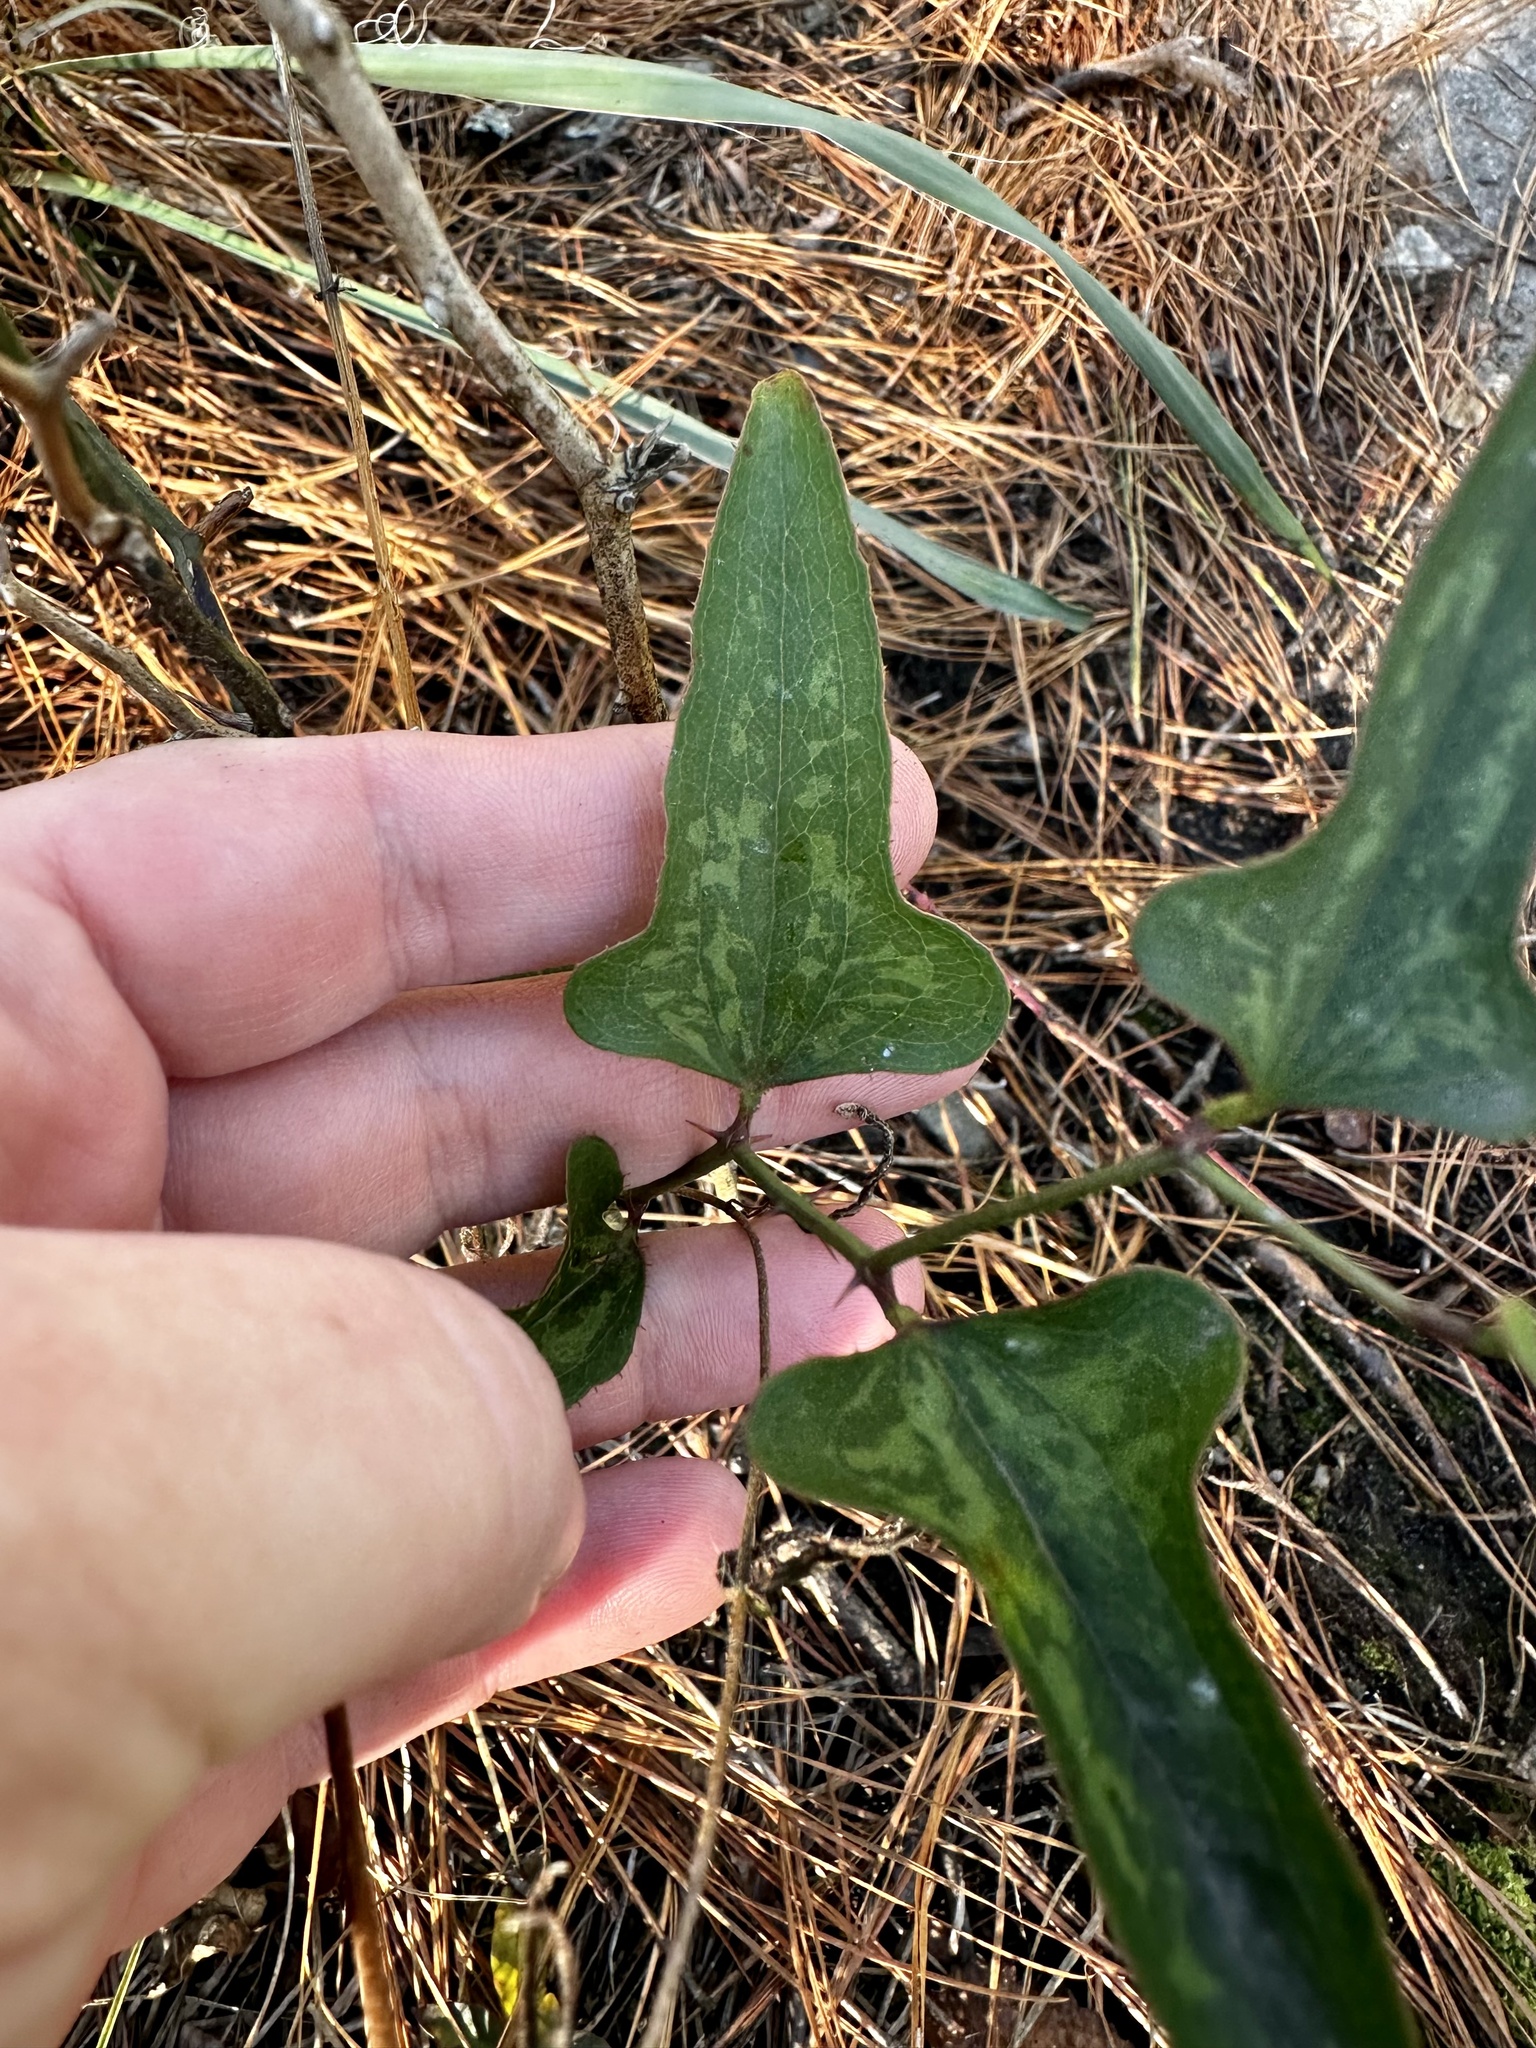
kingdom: Plantae
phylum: Tracheophyta
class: Liliopsida
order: Liliales
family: Smilacaceae
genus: Smilax
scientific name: Smilax bona-nox
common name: Catbrier
